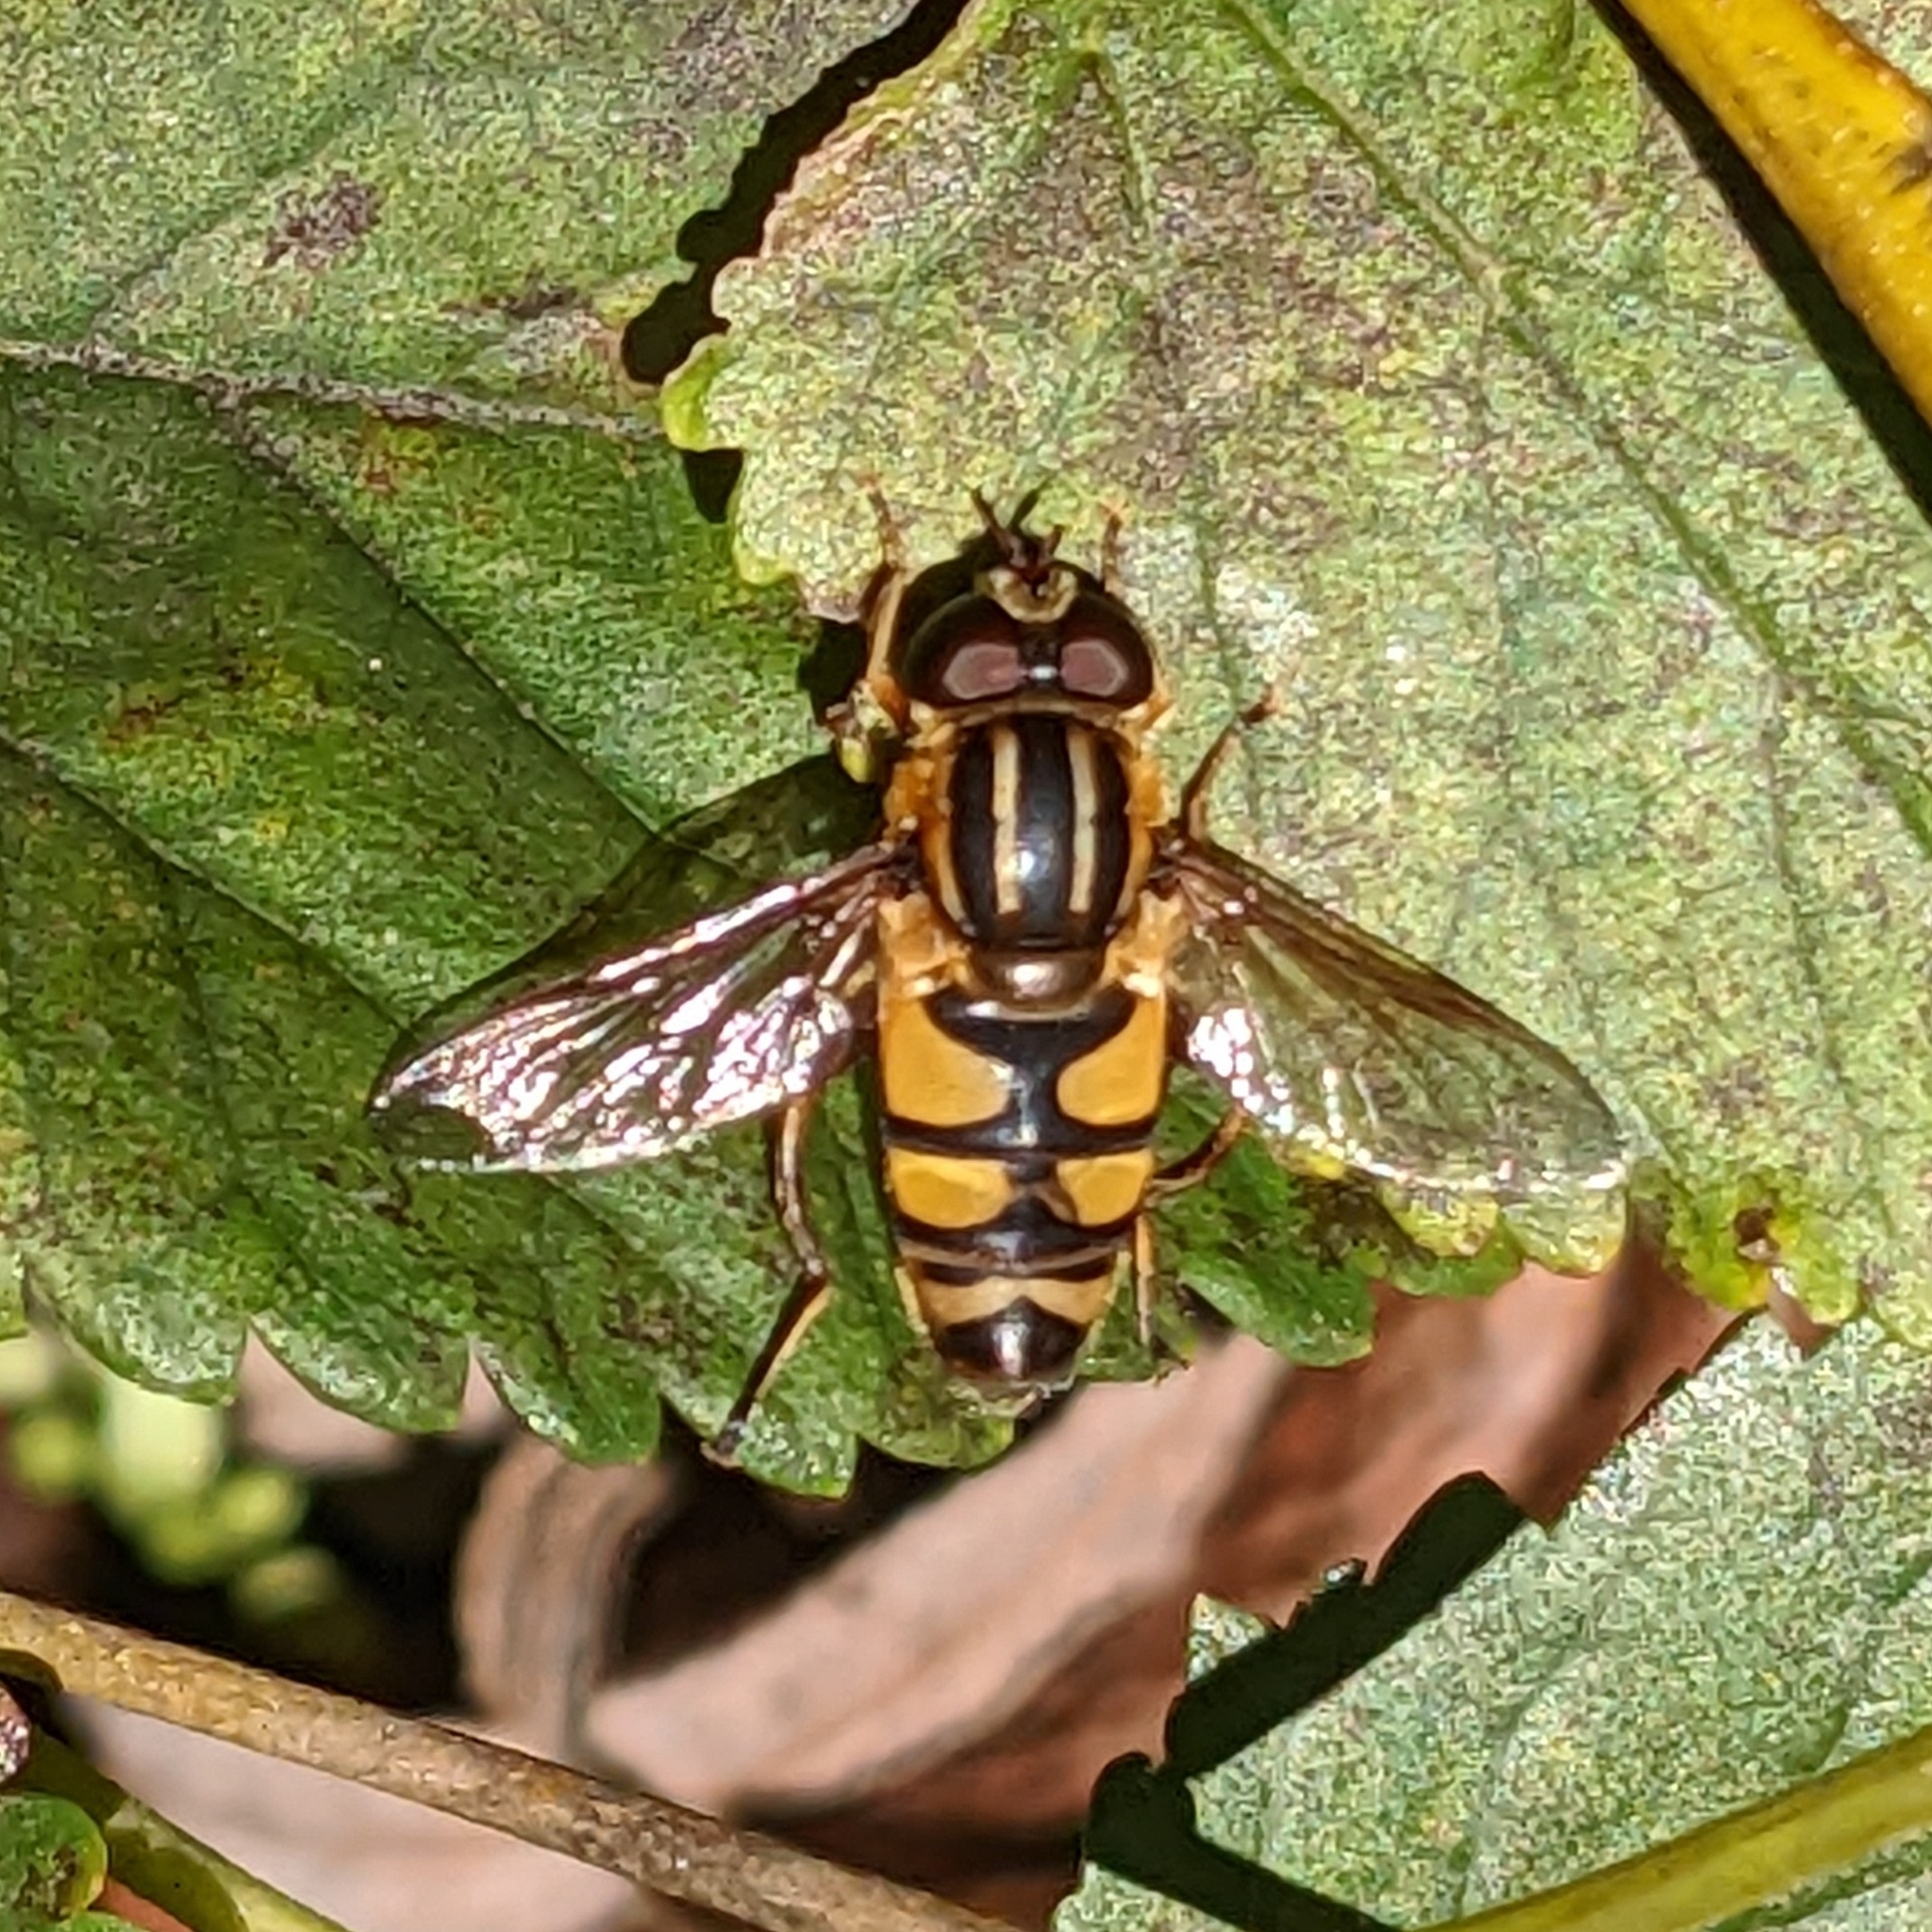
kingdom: Animalia
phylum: Arthropoda
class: Insecta
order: Diptera
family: Syrphidae
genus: Helophilus
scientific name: Helophilus fasciatus
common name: Narrow-headed marsh fly
